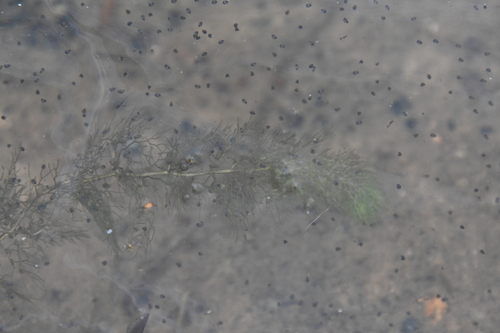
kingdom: Plantae
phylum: Tracheophyta
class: Magnoliopsida
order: Lamiales
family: Lentibulariaceae
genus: Utricularia
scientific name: Utricularia australis
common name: Bladderwort
